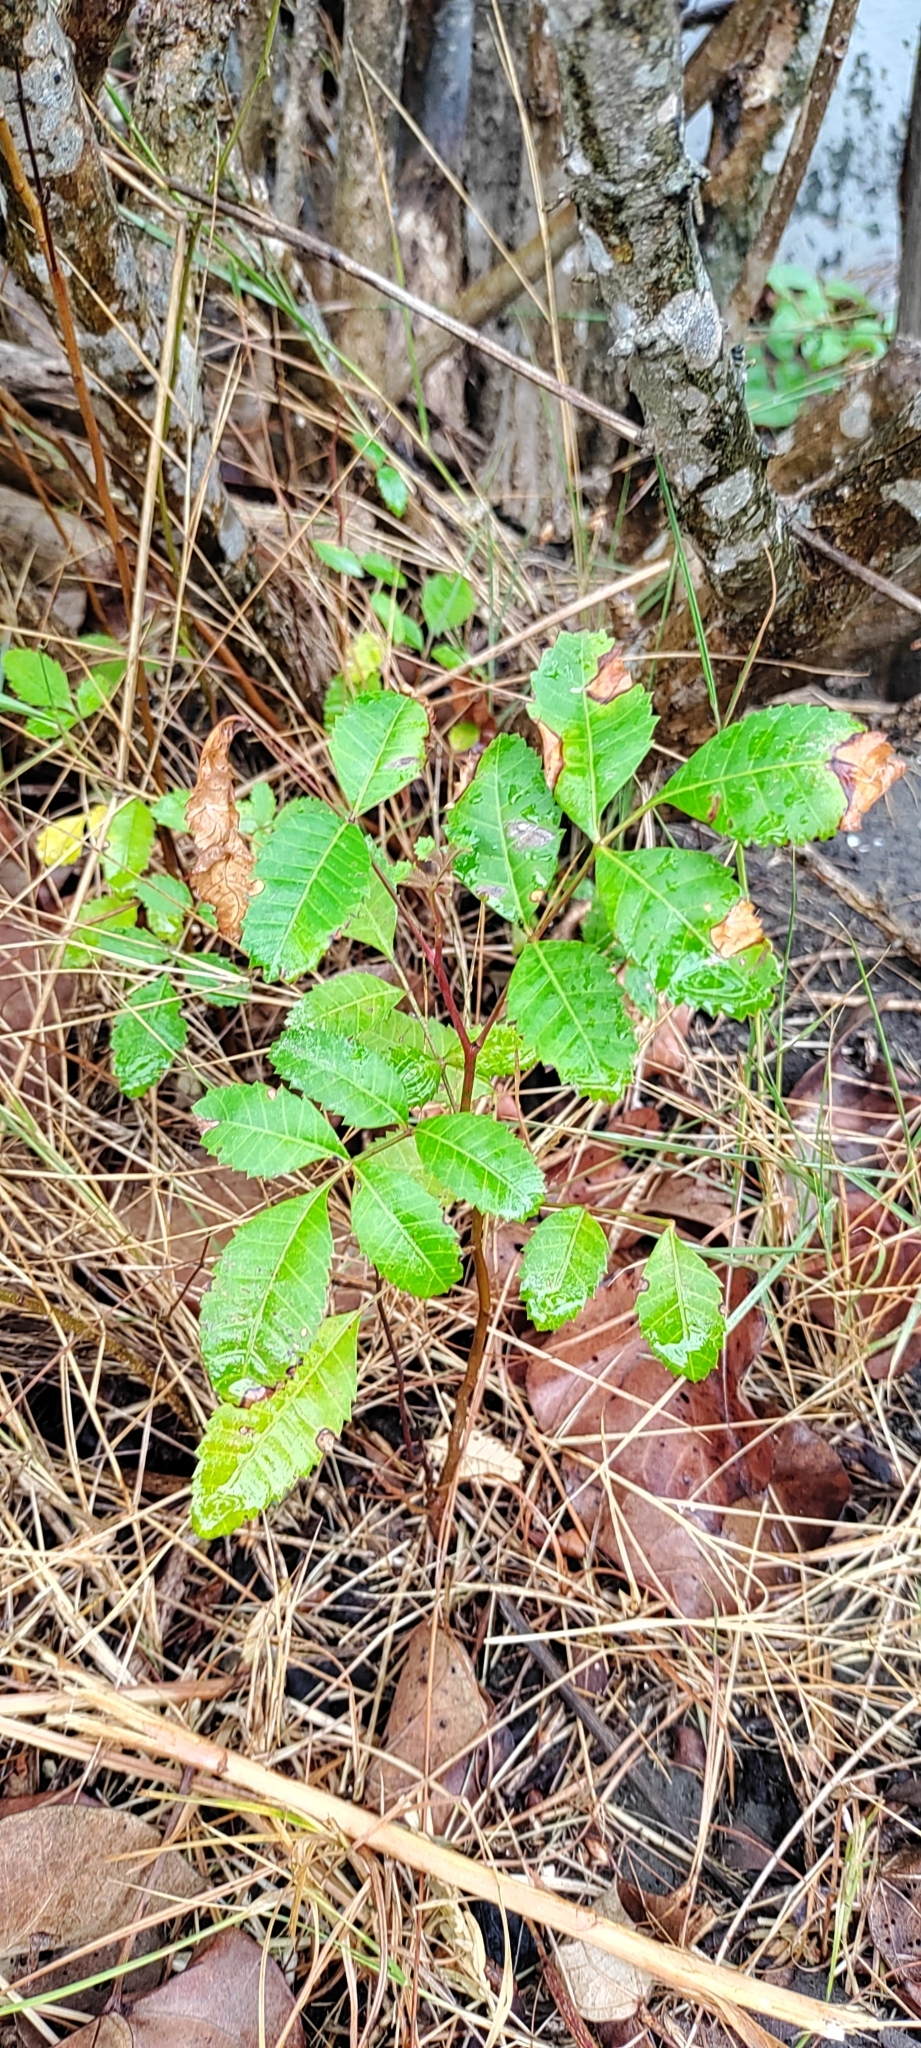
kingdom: Plantae
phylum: Tracheophyta
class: Magnoliopsida
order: Sapindales
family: Anacardiaceae
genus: Schinus
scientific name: Schinus terebinthifolia
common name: Brazilian peppertree
